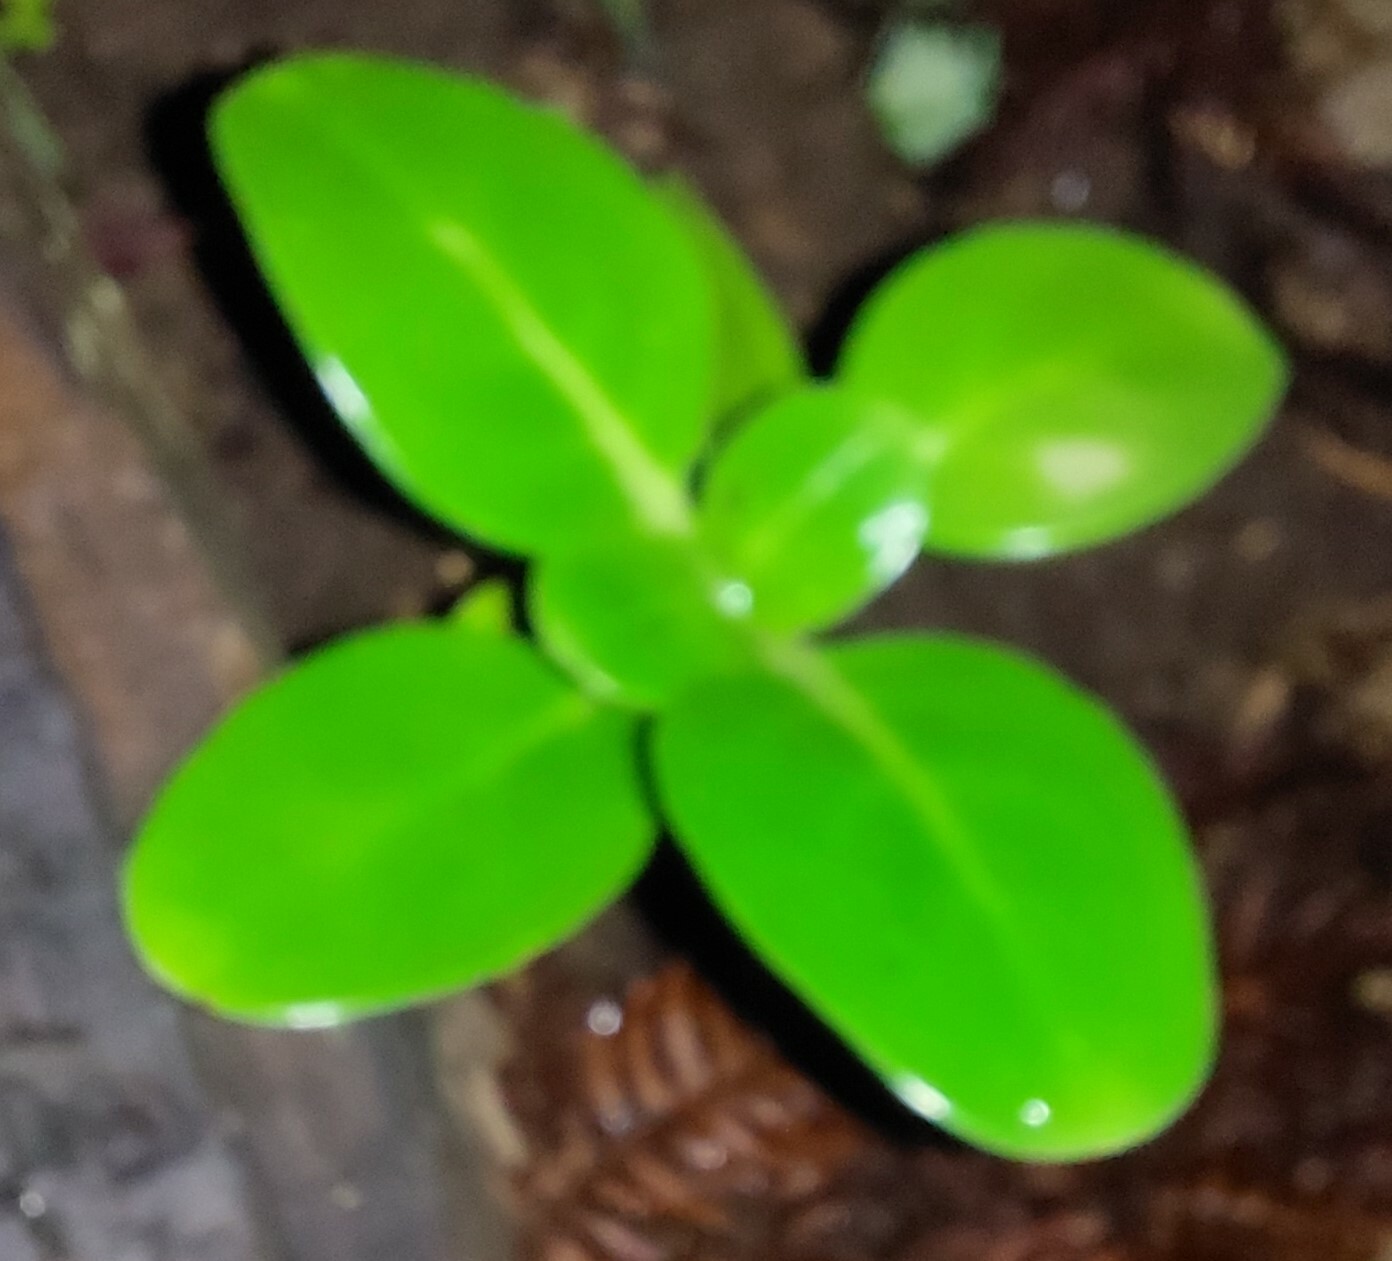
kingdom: Plantae
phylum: Tracheophyta
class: Magnoliopsida
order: Gentianales
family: Rubiaceae
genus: Coprosma
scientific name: Coprosma repens
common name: Tree bedstraw
